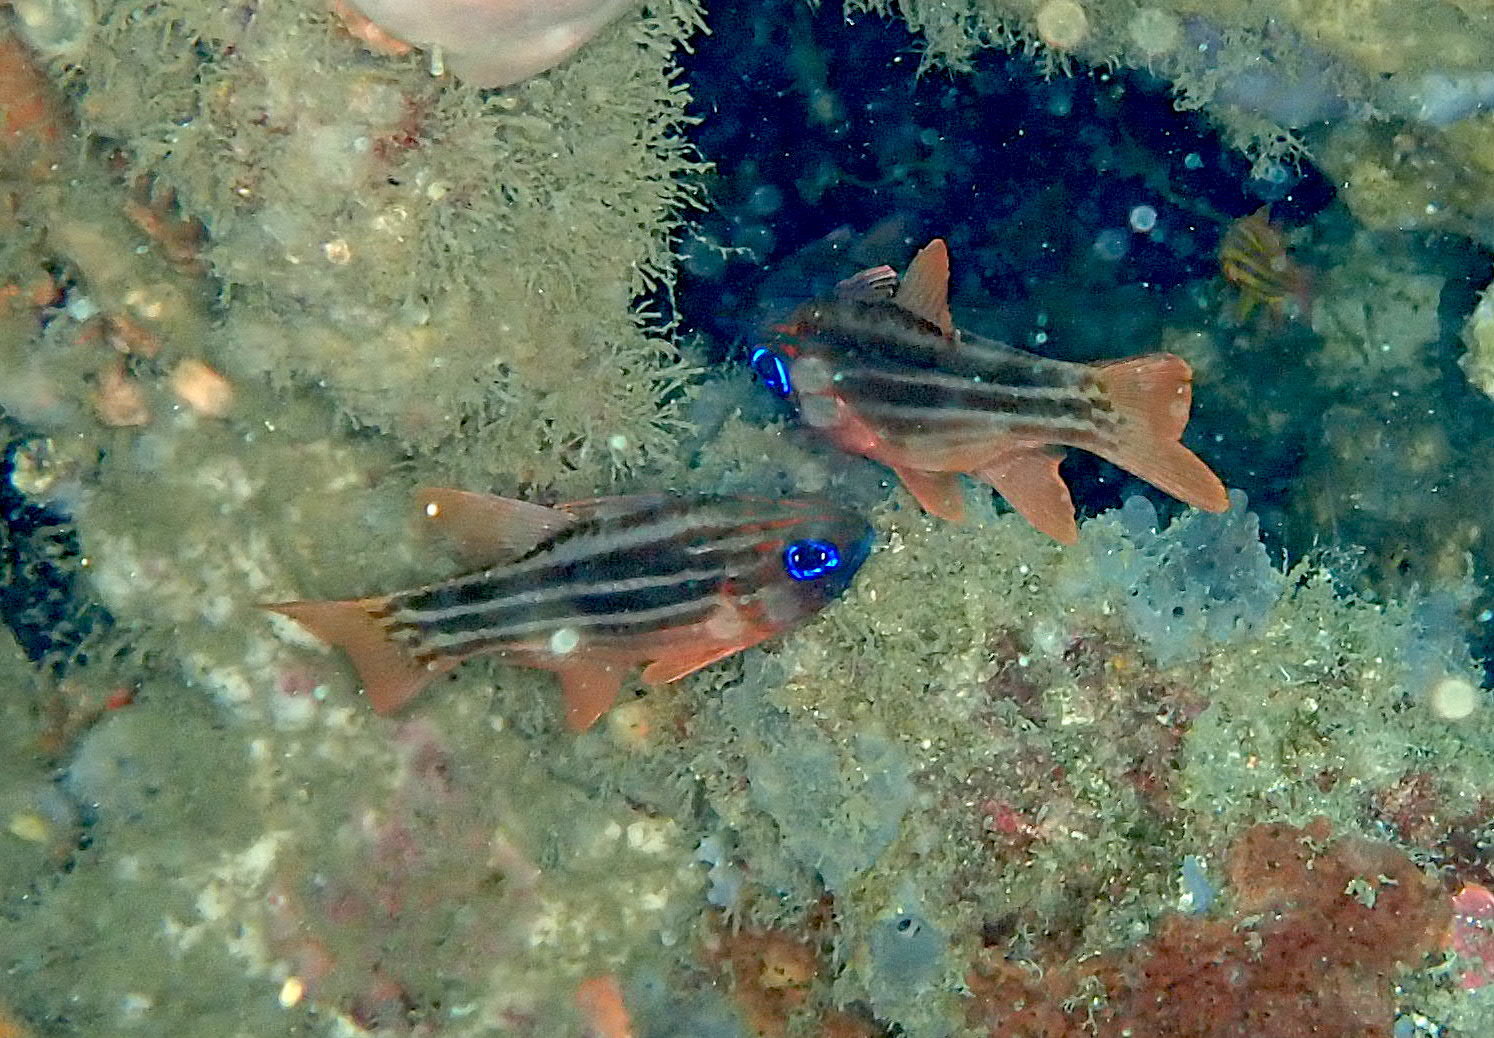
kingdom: Animalia
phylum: Chordata
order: Perciformes
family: Apogonidae
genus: Ostorhinchus
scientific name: Ostorhinchus compressus
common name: Ochre-striped cardinalfish
